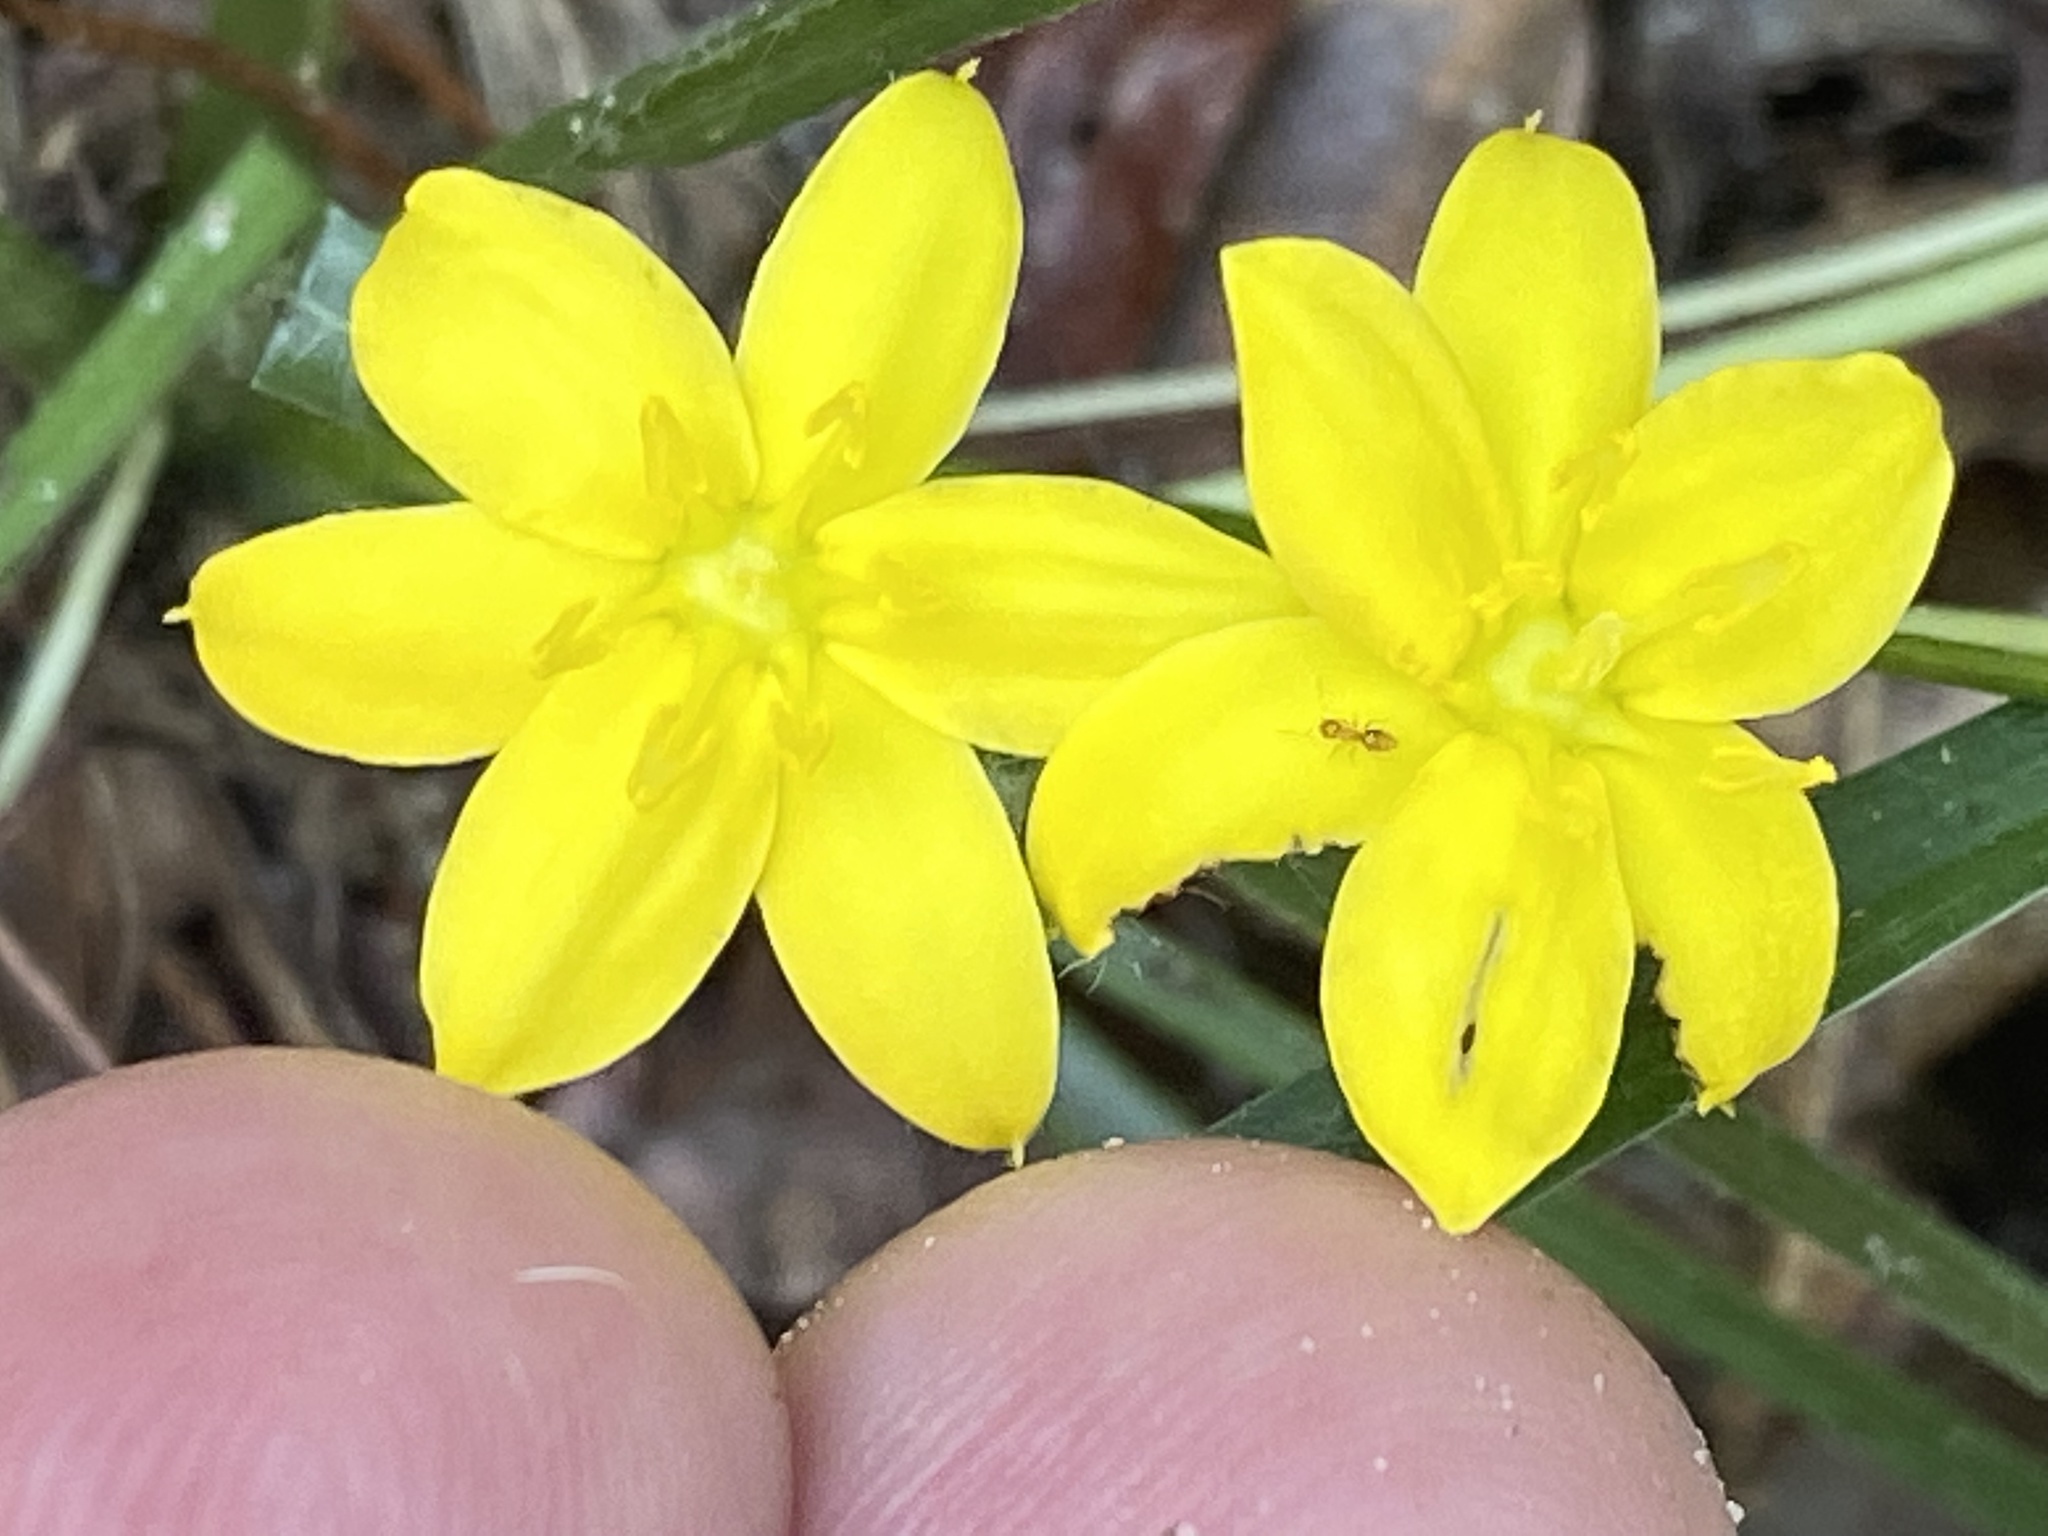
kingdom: Plantae
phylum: Tracheophyta
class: Liliopsida
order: Asparagales
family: Hypoxidaceae
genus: Hypoxis
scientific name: Hypoxis hirsuta
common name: Common goldstar
